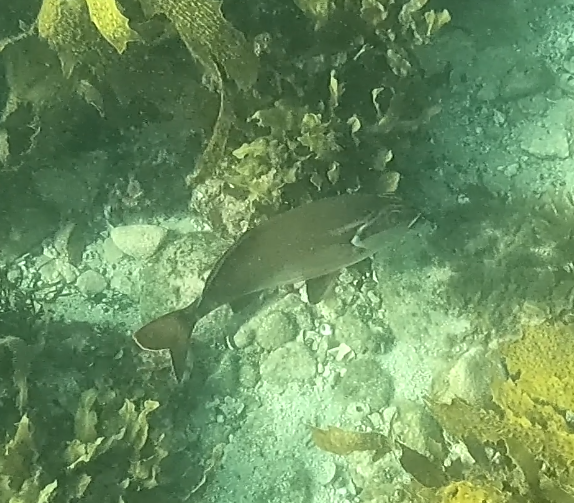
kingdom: Animalia
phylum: Chordata
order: Perciformes
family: Latridae
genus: Morwong
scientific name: Morwong fuscus
